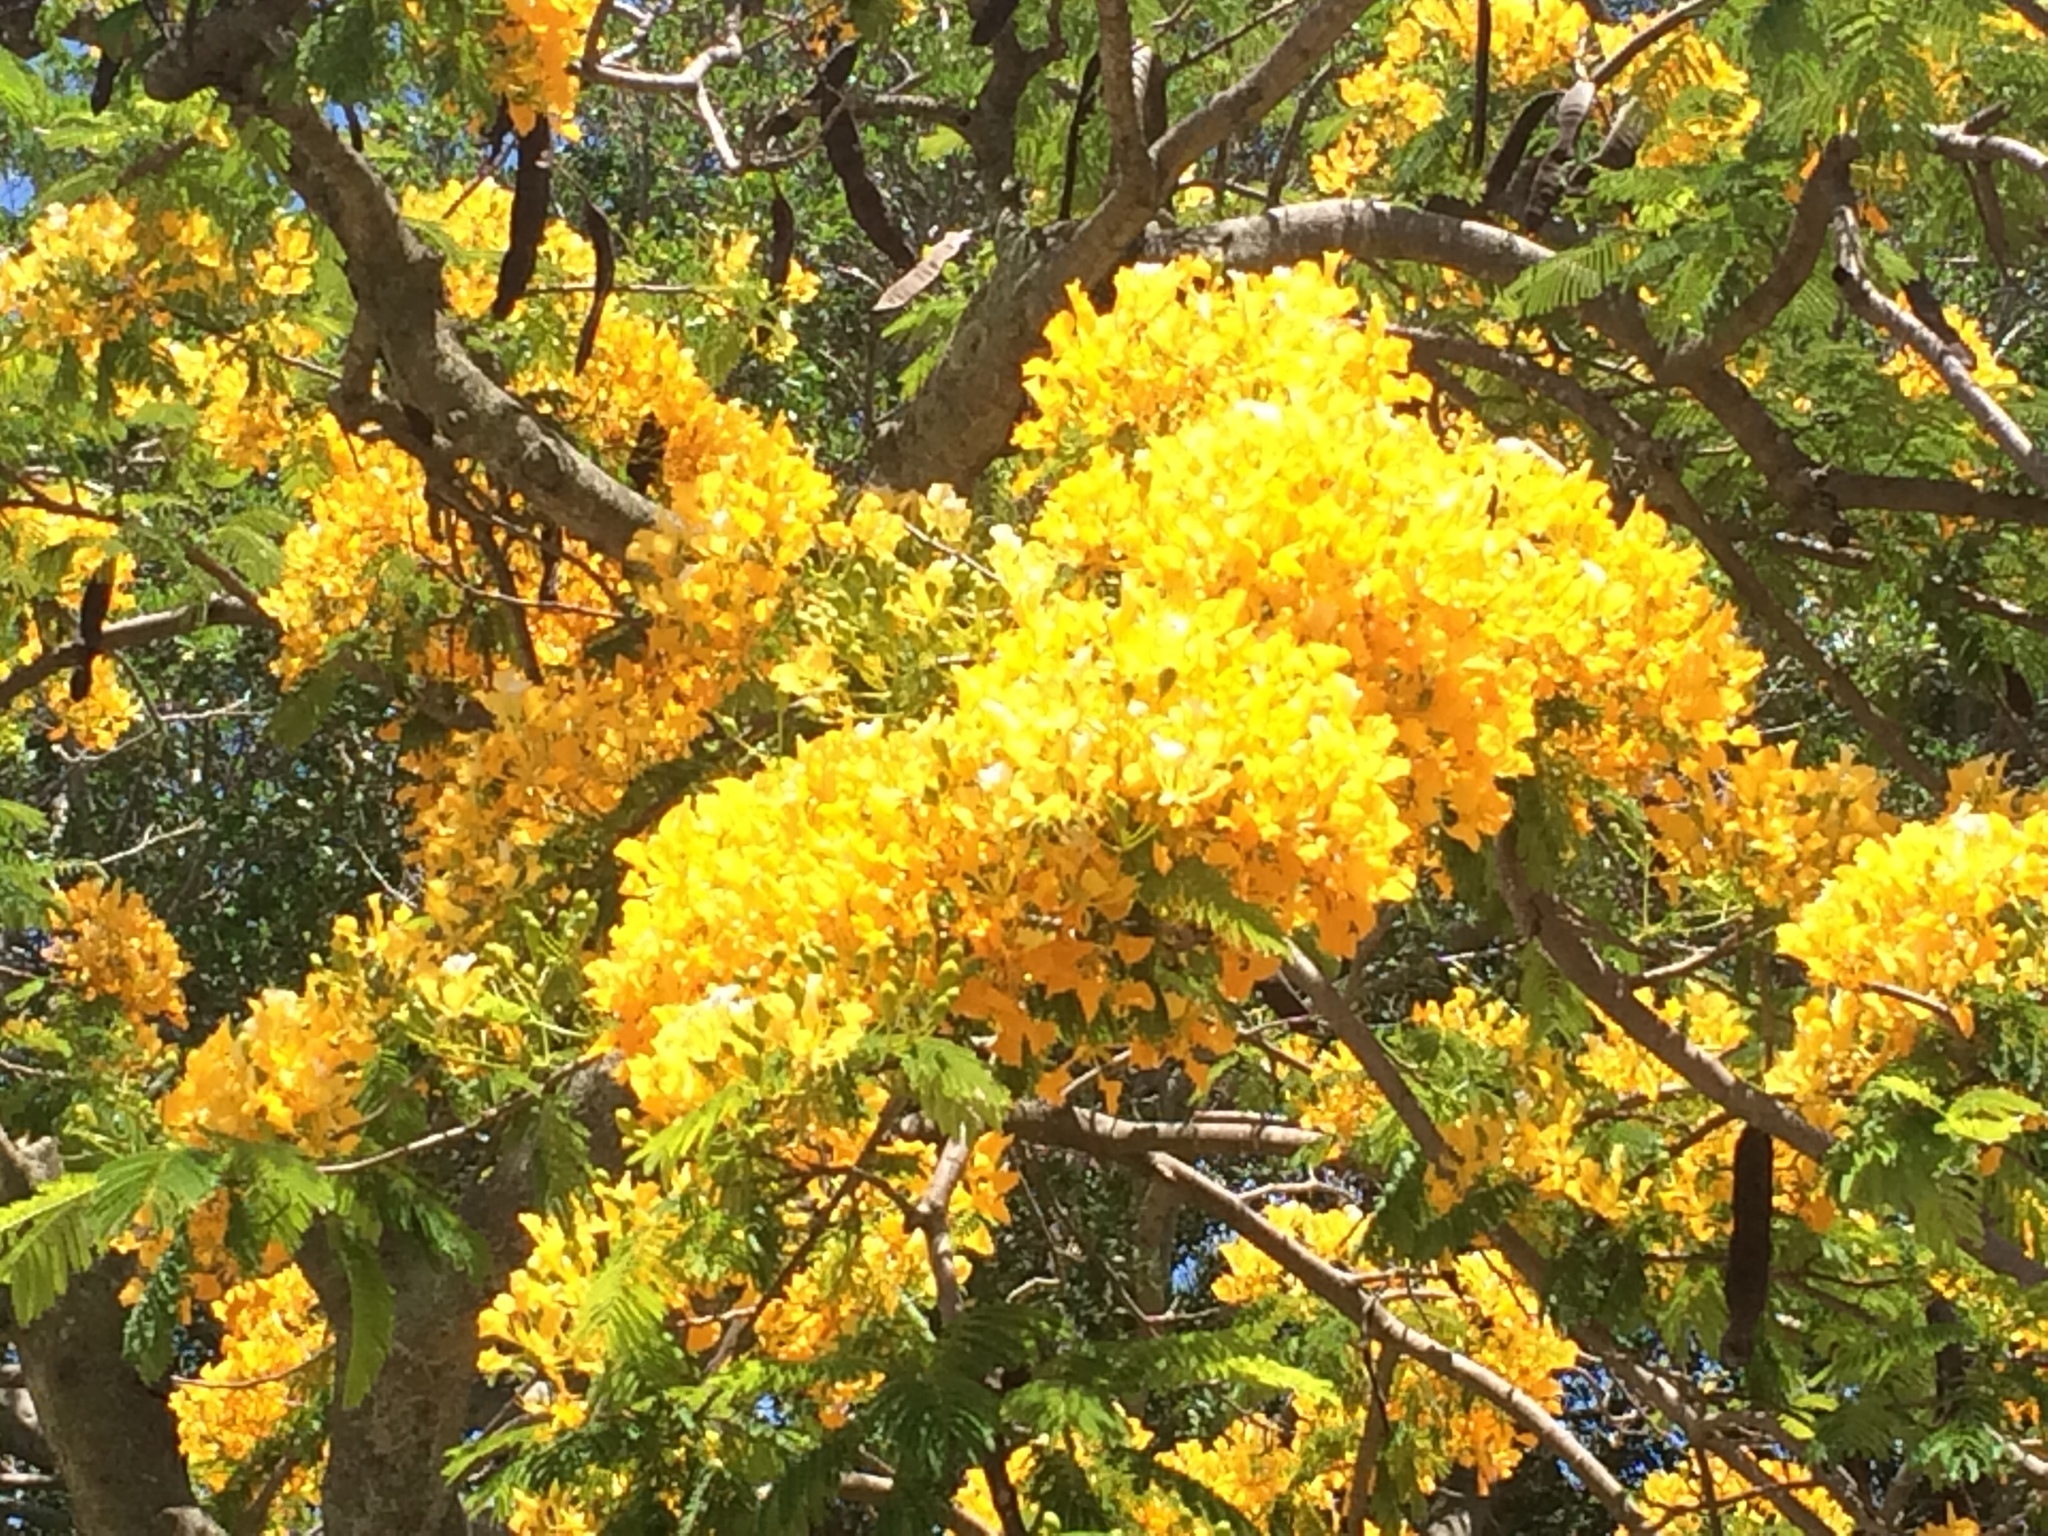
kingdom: Plantae
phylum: Tracheophyta
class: Magnoliopsida
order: Fabales
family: Fabaceae
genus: Delonix
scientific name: Delonix regia
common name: Royal poinciana
